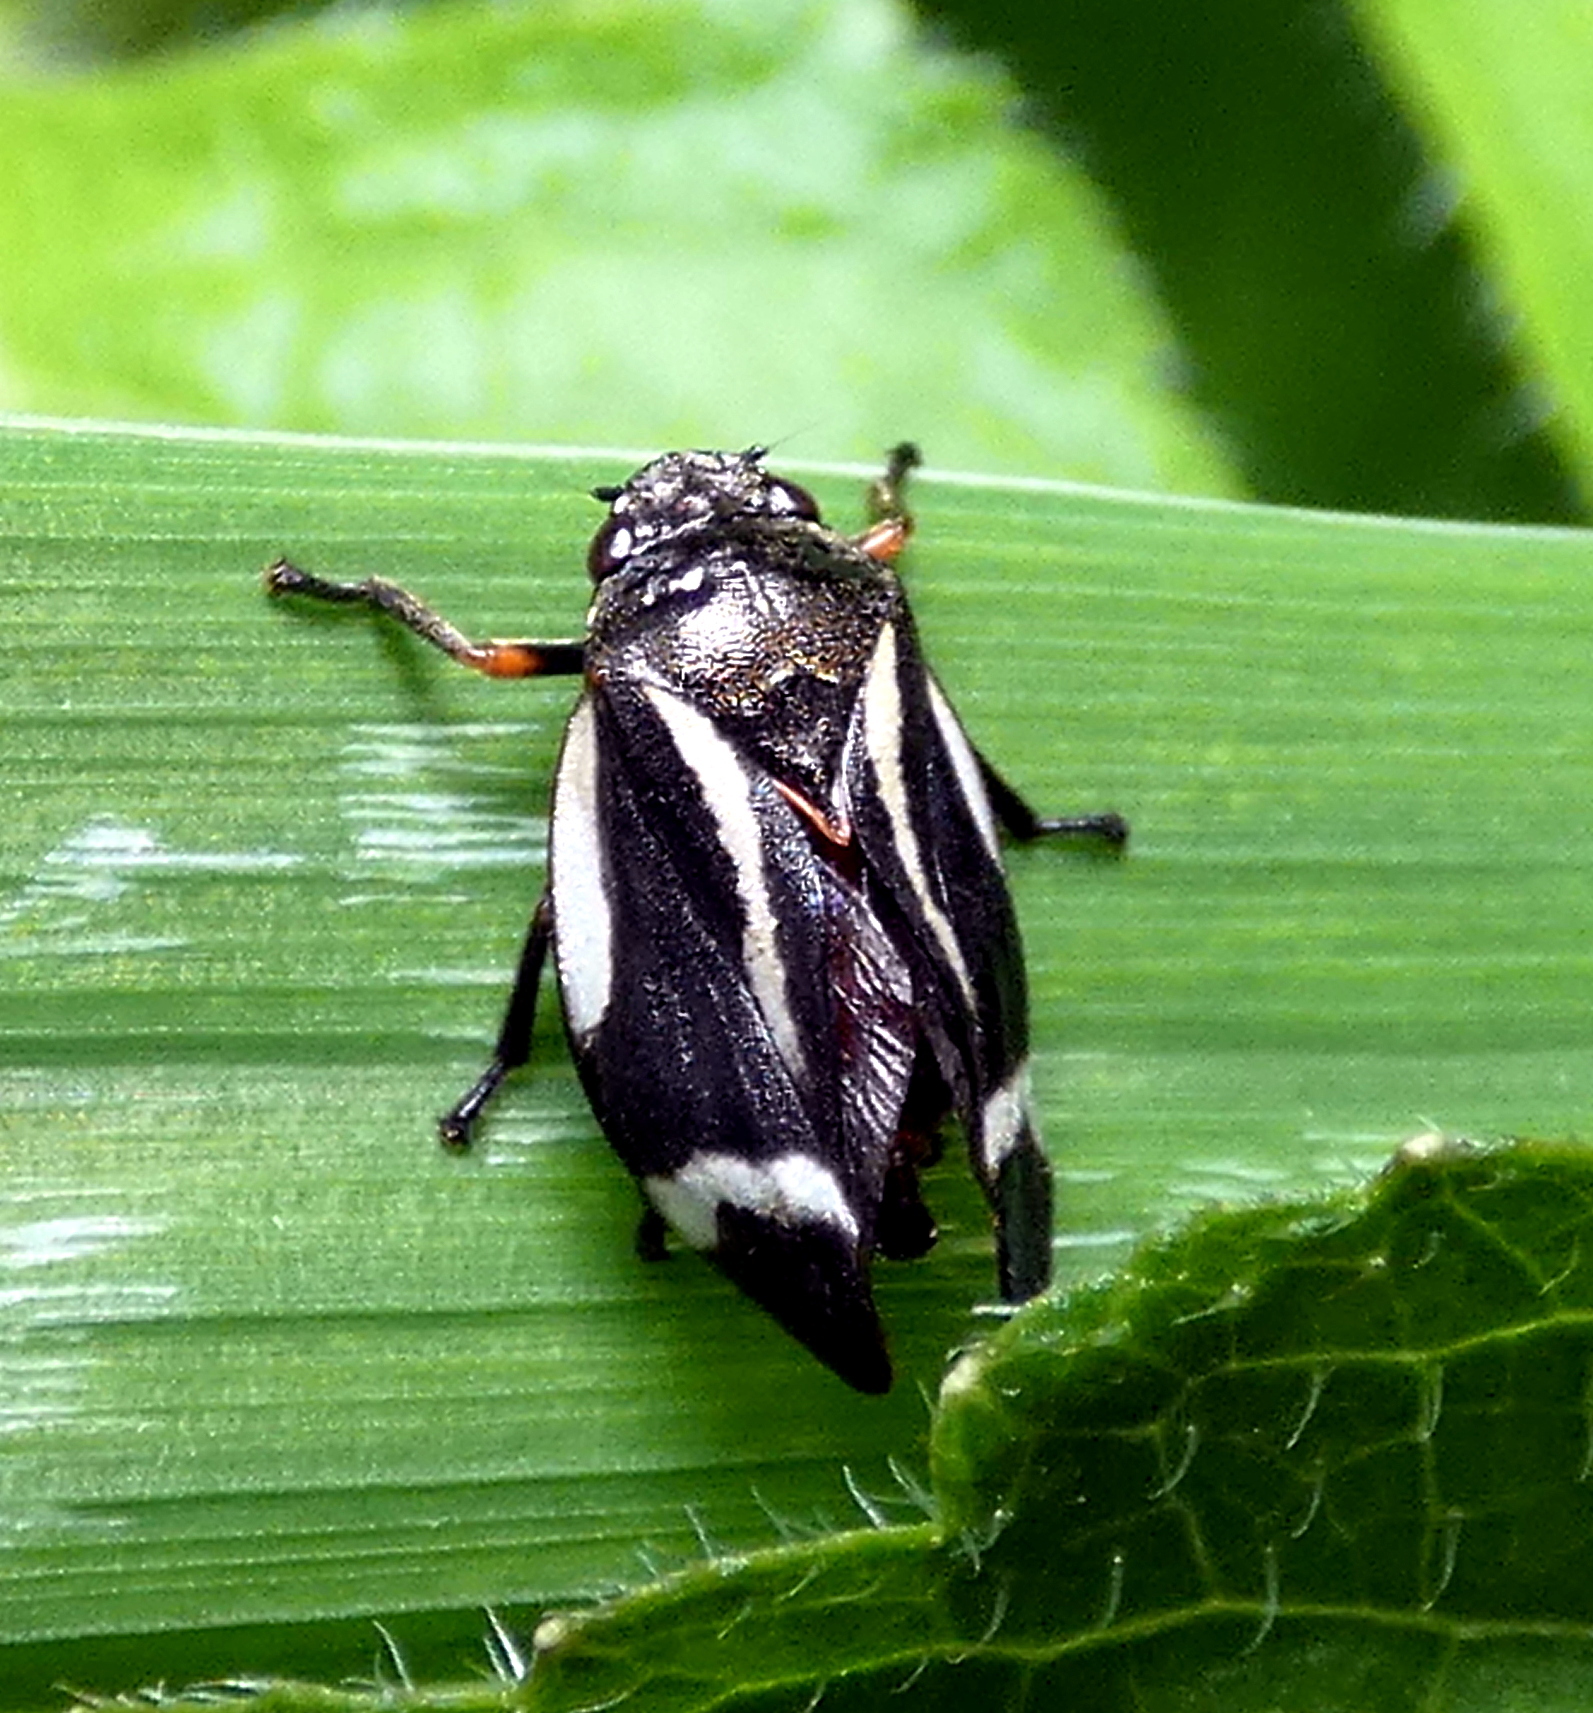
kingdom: Animalia
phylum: Arthropoda
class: Insecta
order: Hemiptera
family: Cercopidae
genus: Notozulia
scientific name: Notozulia entreriana
